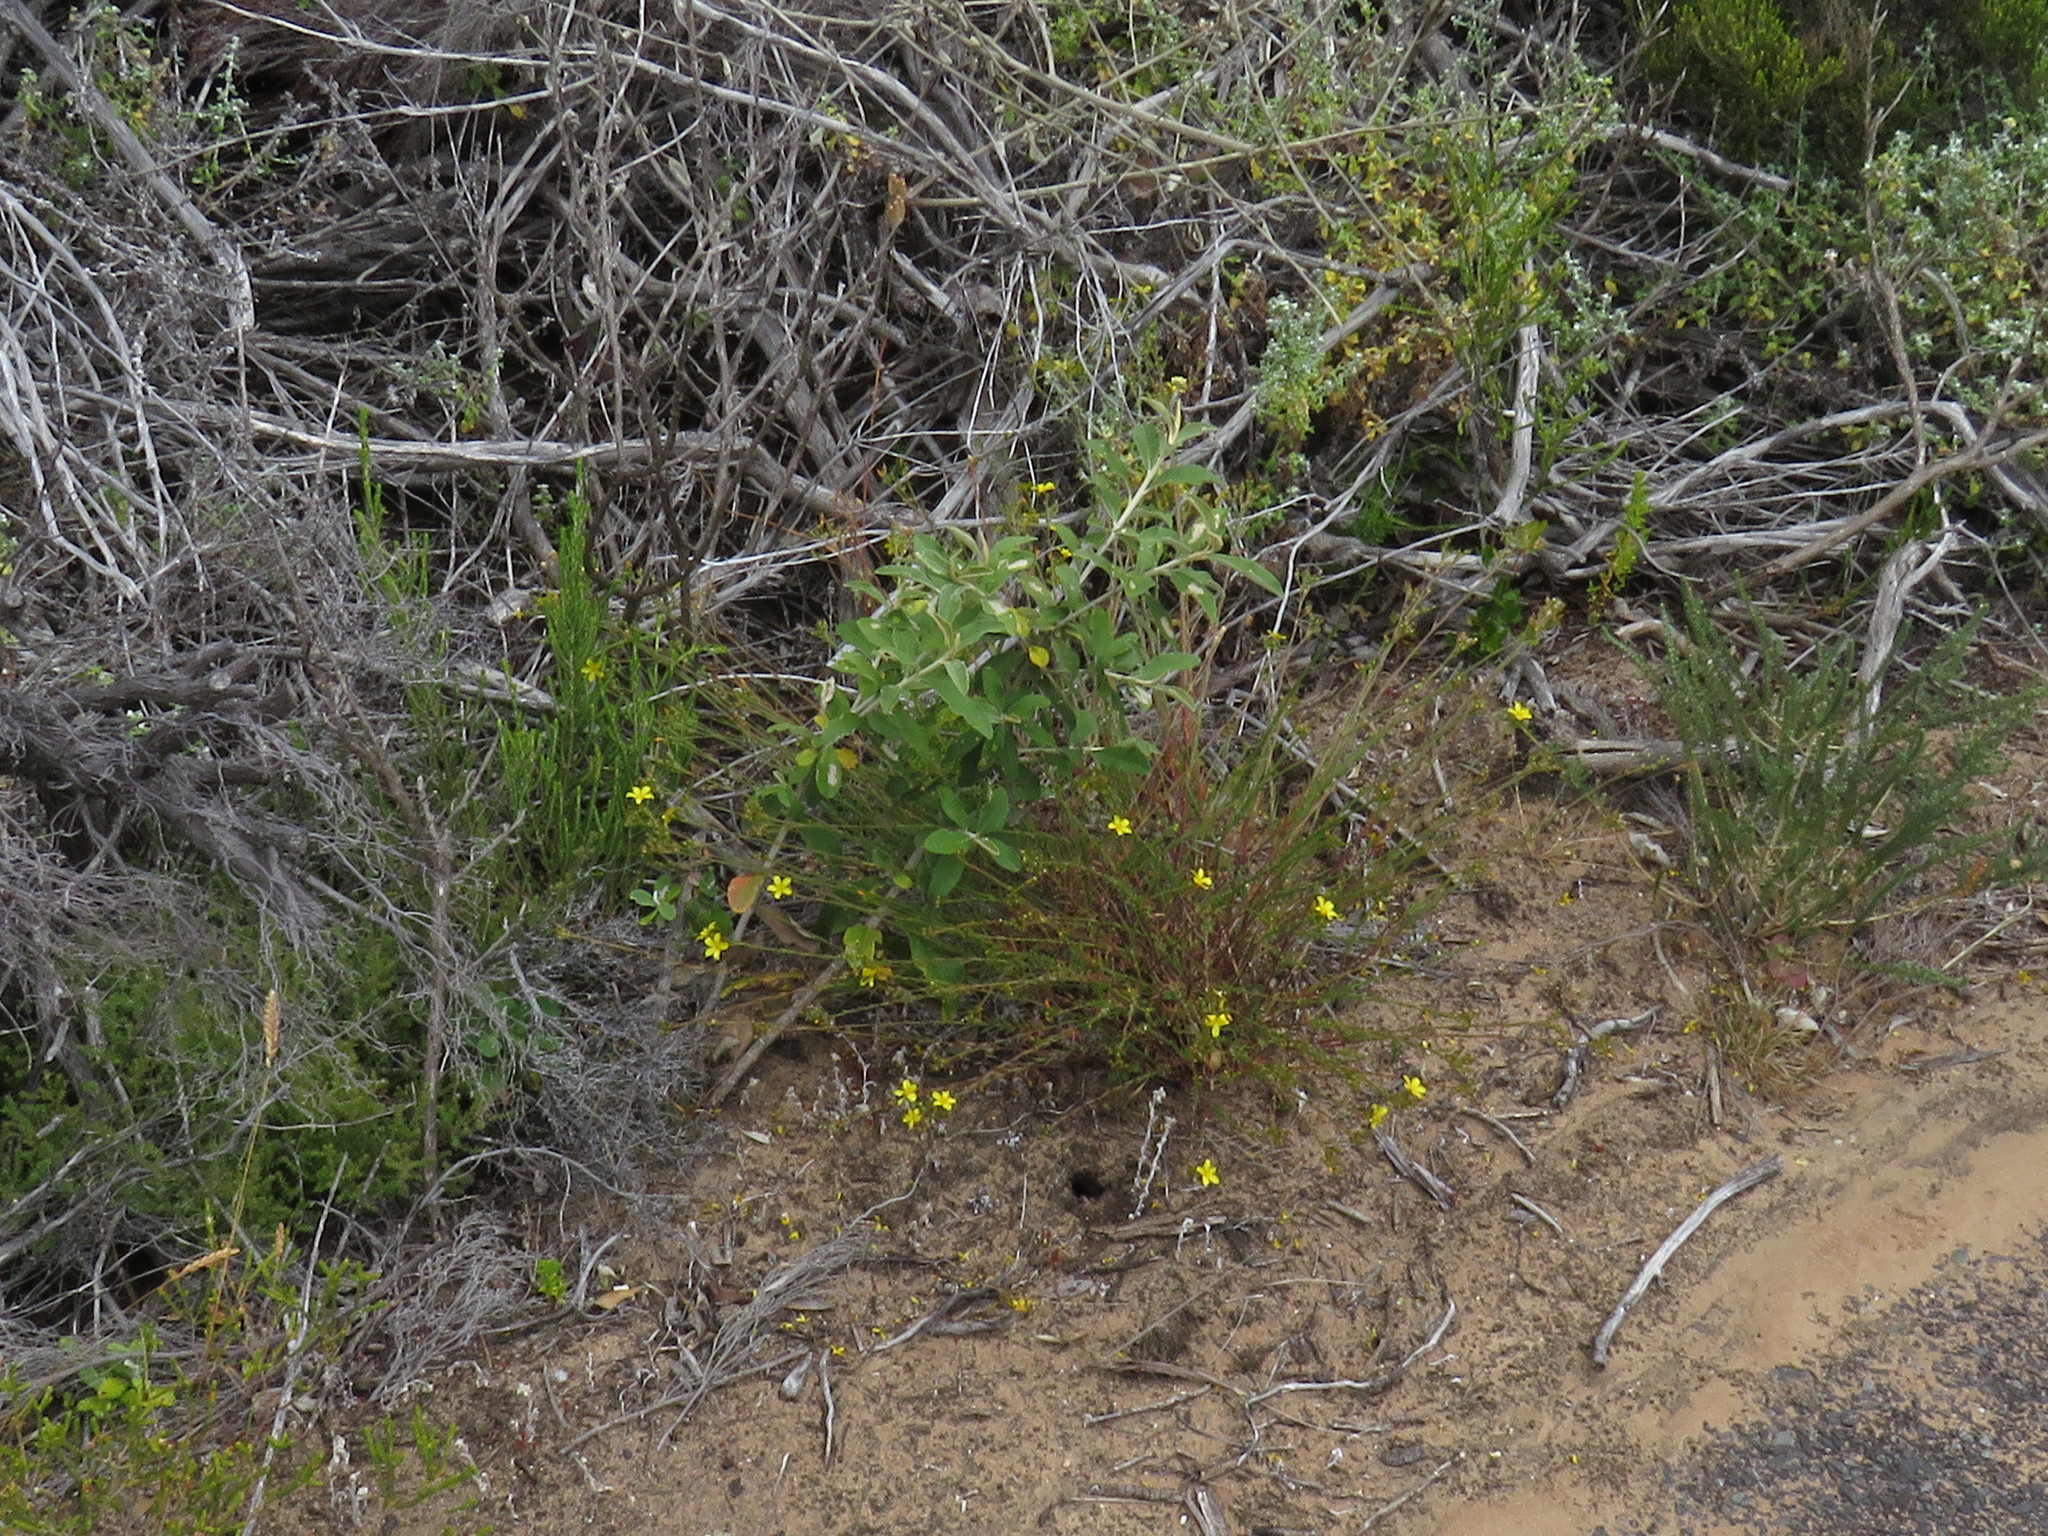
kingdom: Plantae
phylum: Tracheophyta
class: Magnoliopsida
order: Malpighiales
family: Linaceae
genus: Linum
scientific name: Linum africanum
